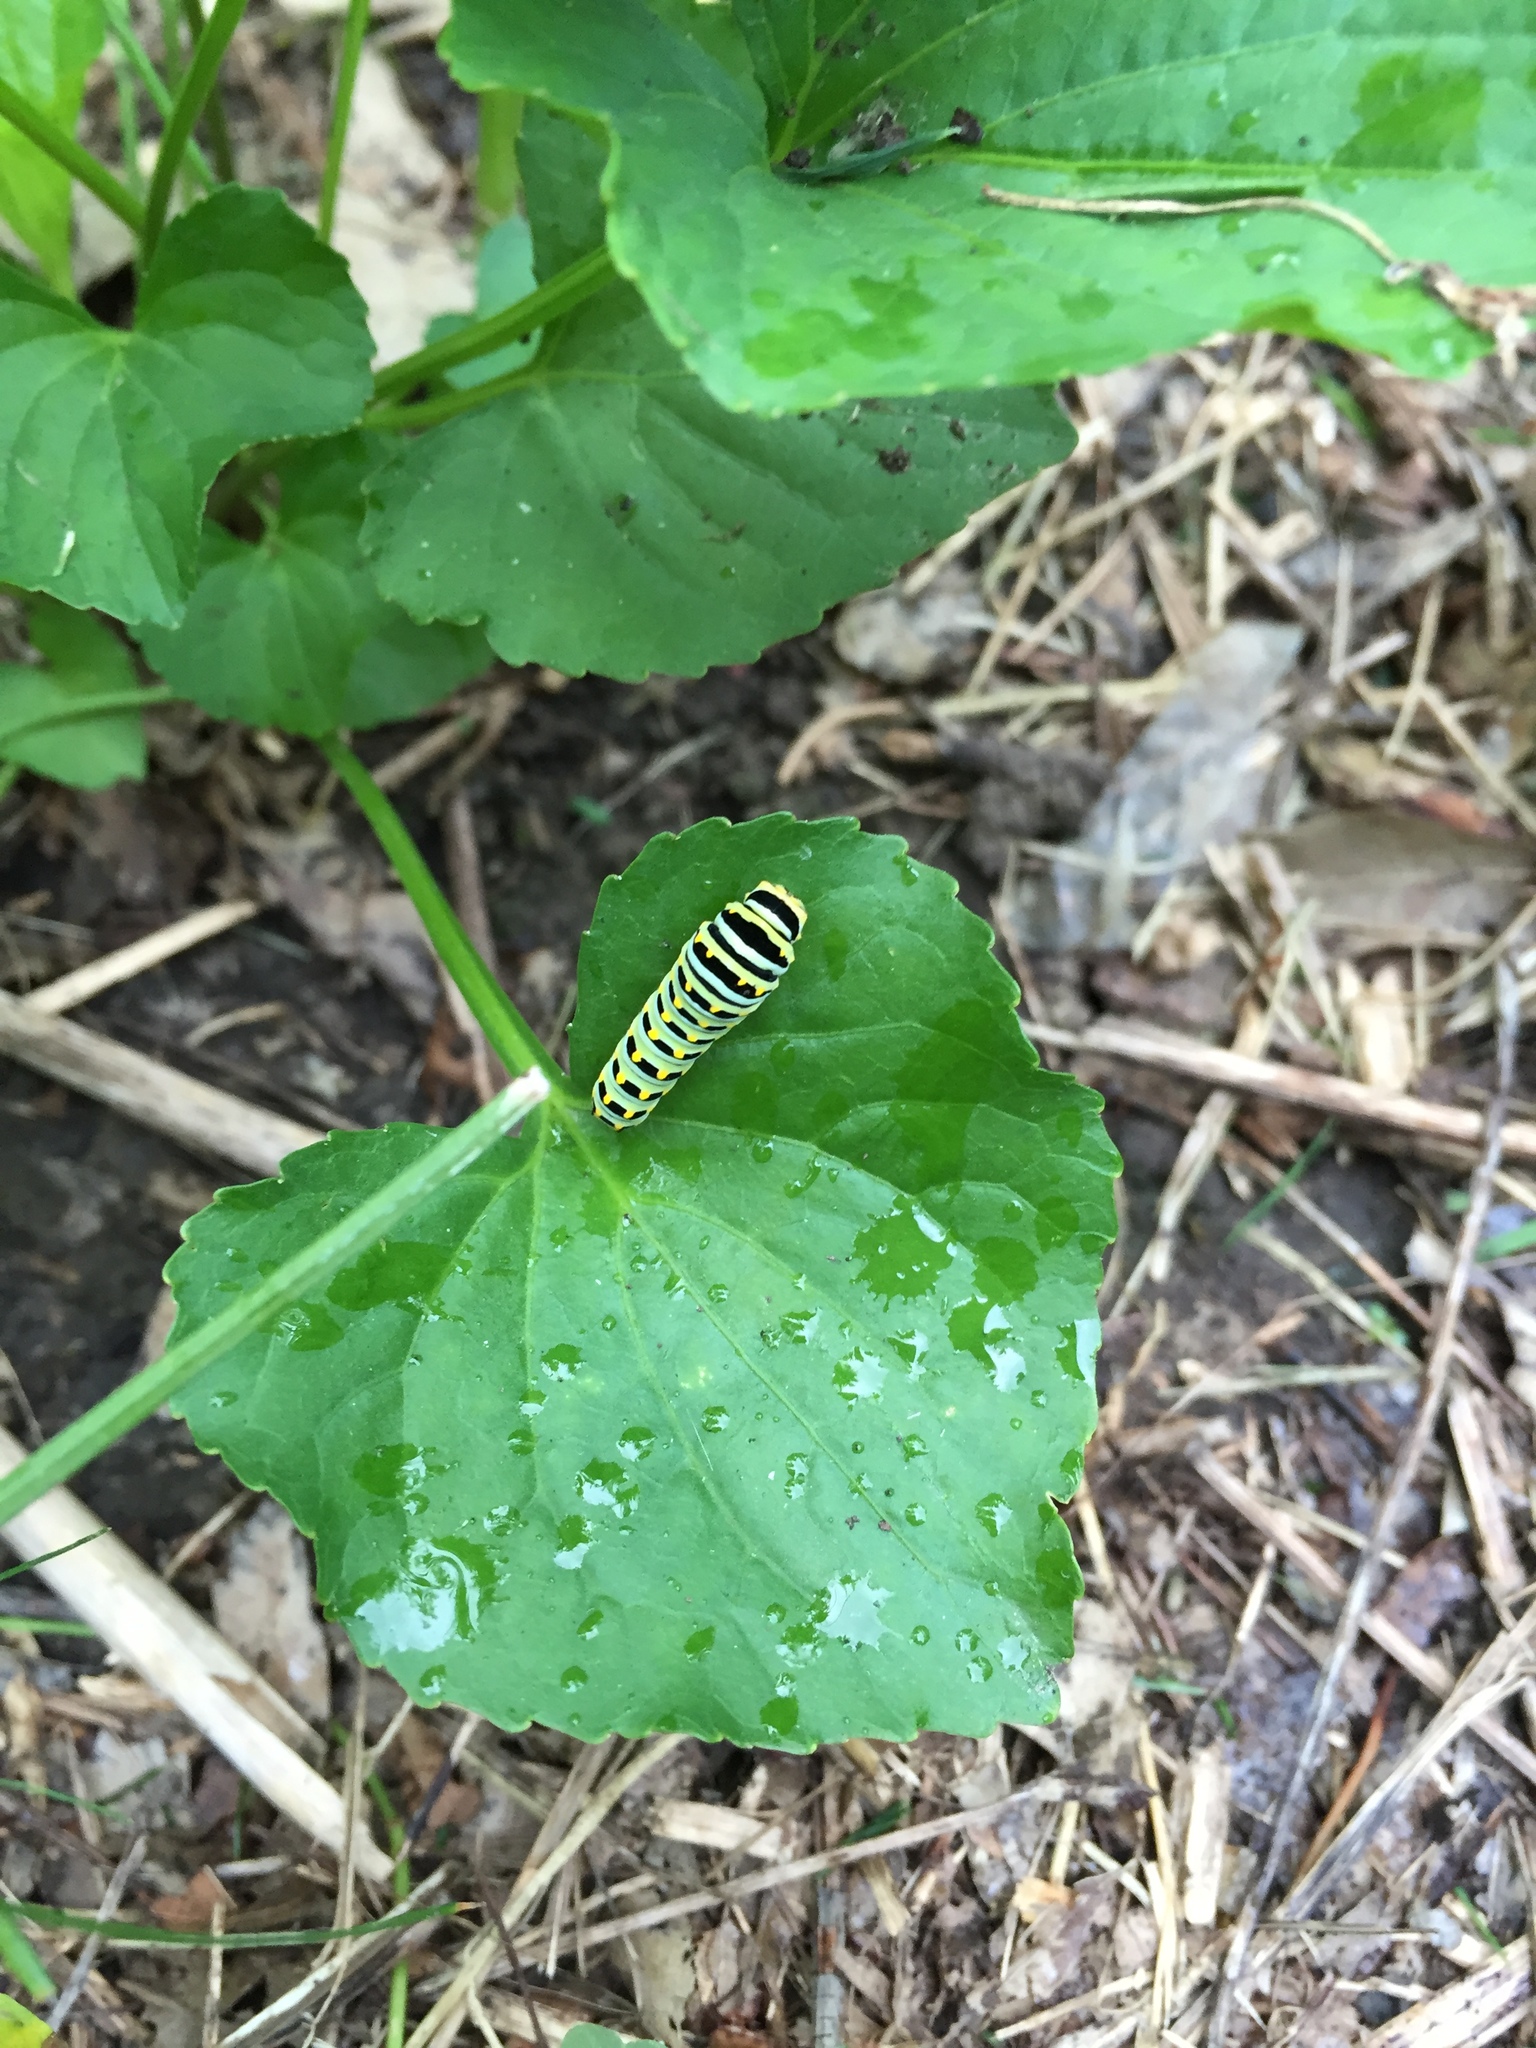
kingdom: Animalia
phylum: Arthropoda
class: Insecta
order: Lepidoptera
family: Papilionidae
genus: Papilio
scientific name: Papilio polyxenes
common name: Black swallowtail
